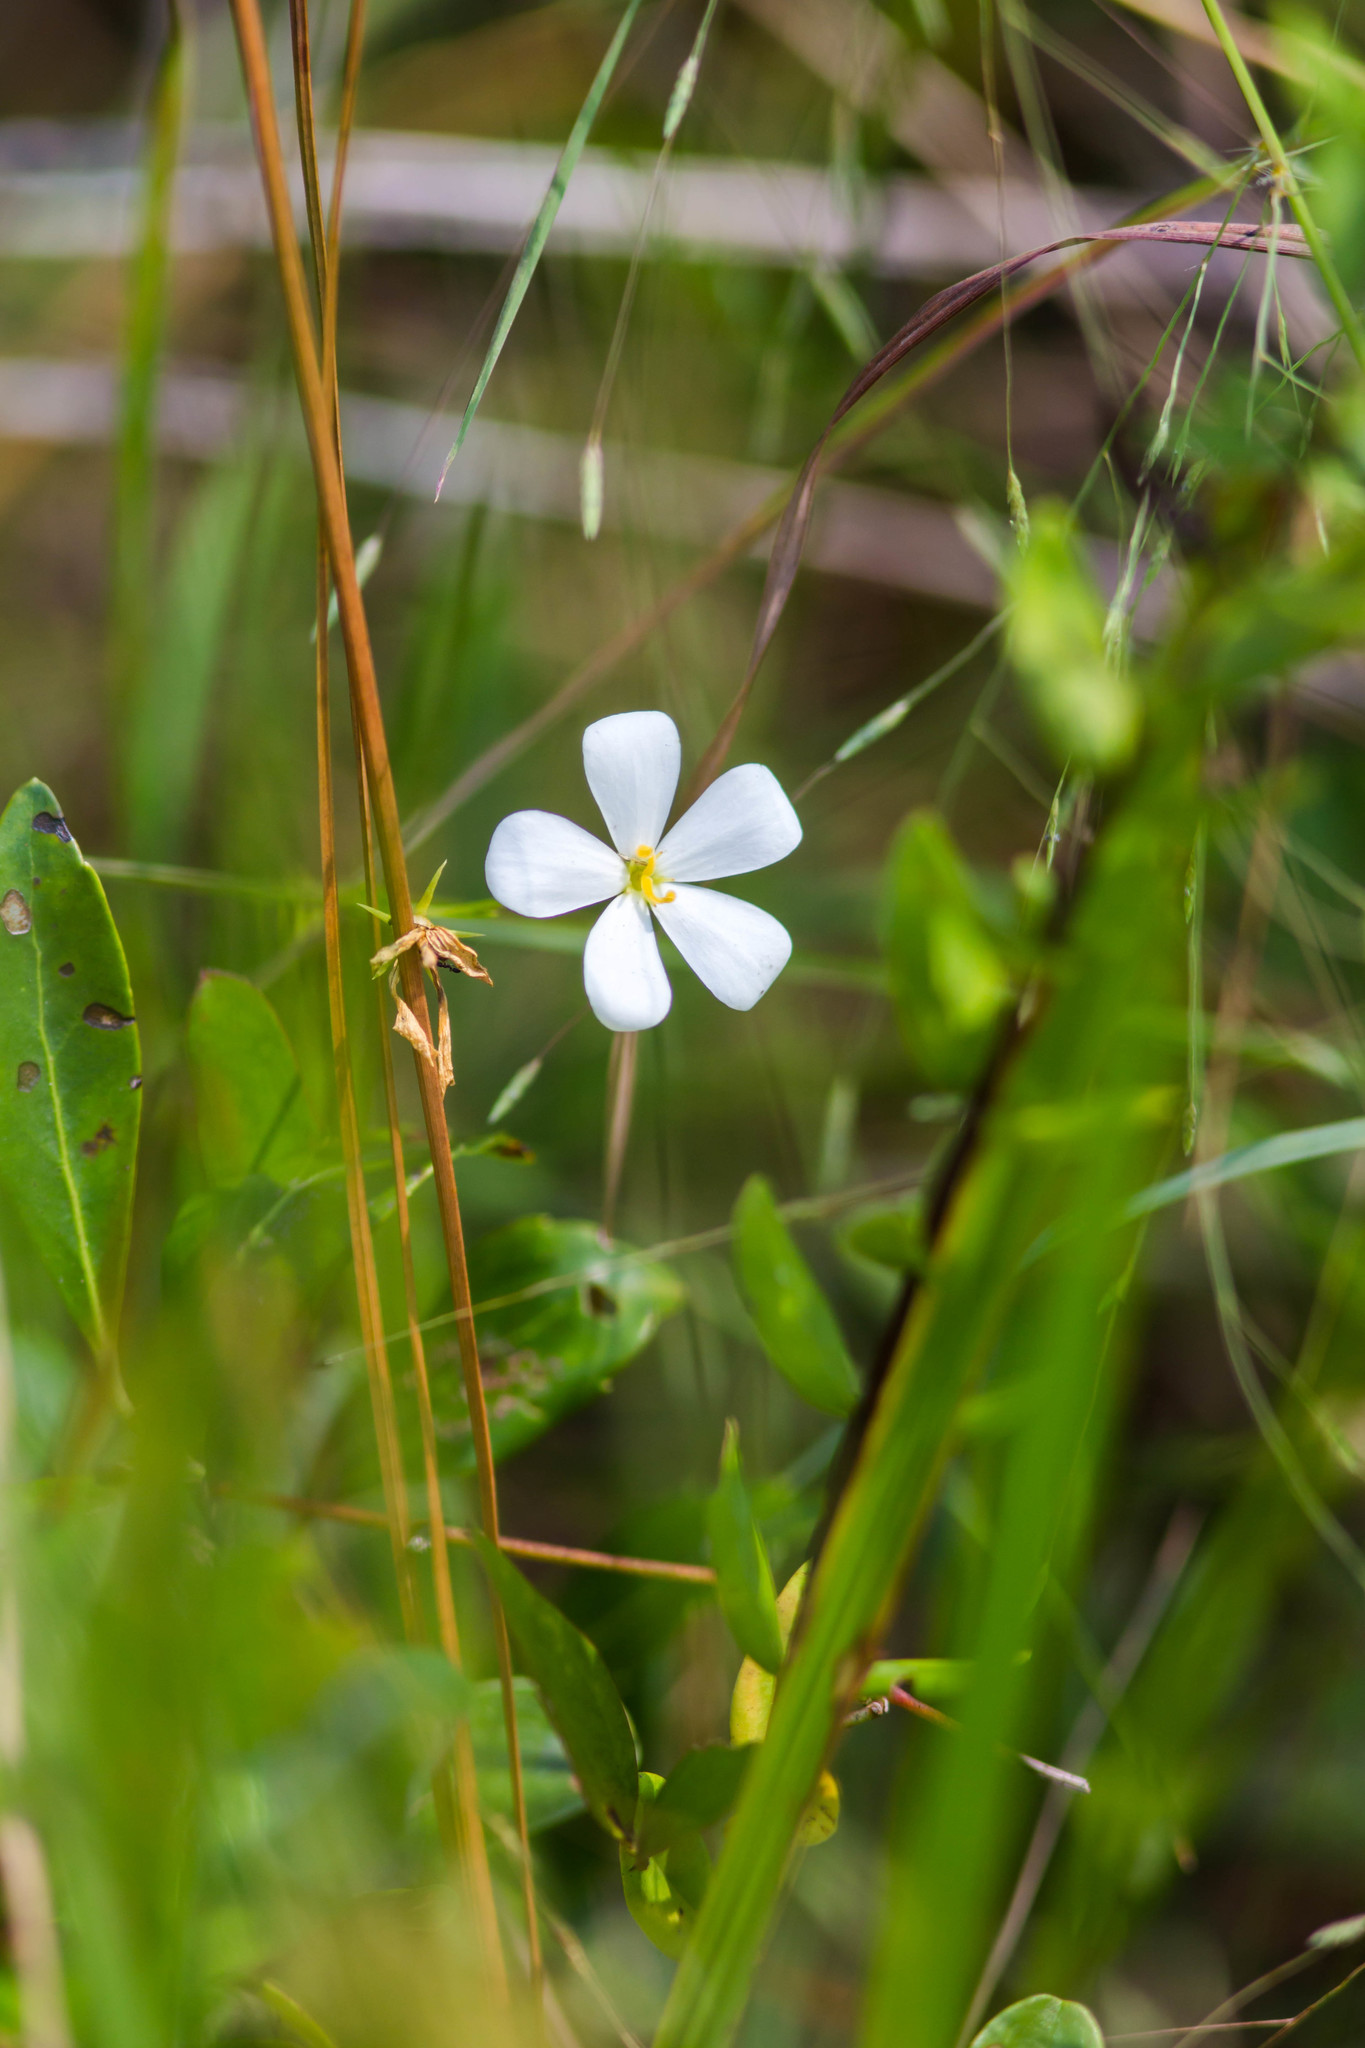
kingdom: Plantae
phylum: Tracheophyta
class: Magnoliopsida
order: Gentianales
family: Gentianaceae
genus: Sabatia
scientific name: Sabatia brevifolia
